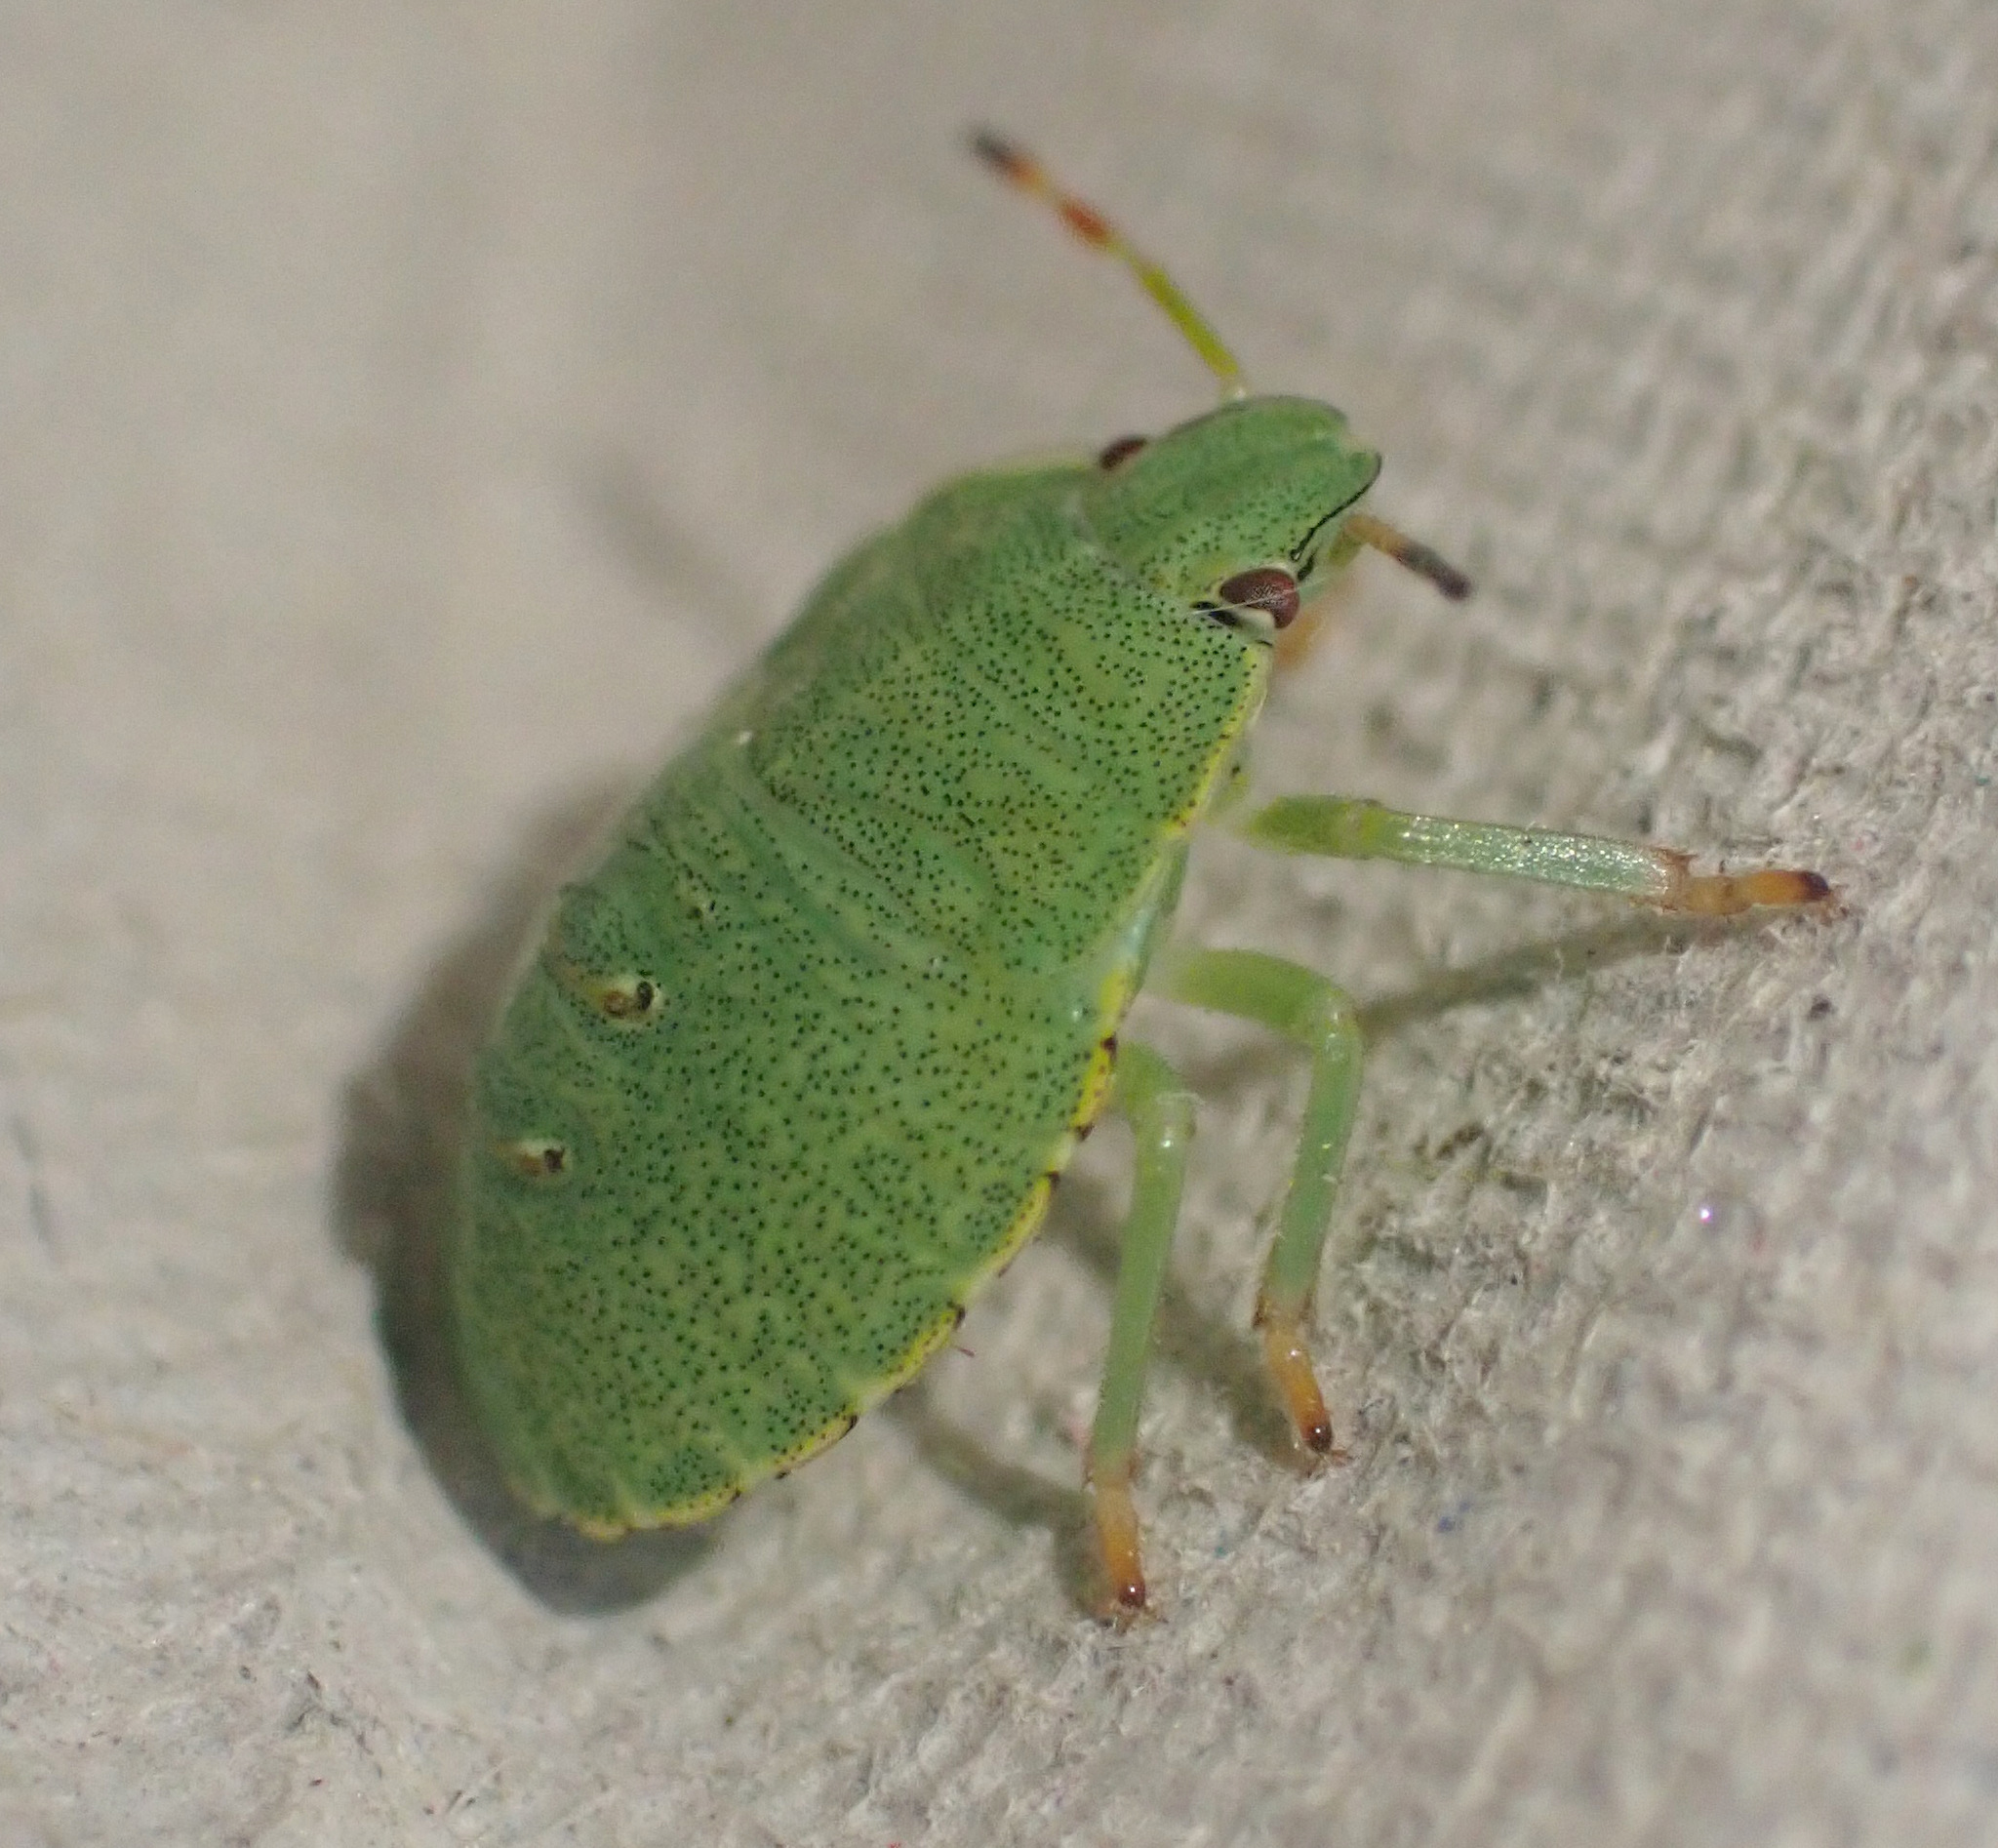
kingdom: Animalia
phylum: Arthropoda
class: Insecta
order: Hemiptera
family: Pentatomidae
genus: Palomena
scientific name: Palomena prasina
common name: Green shieldbug
